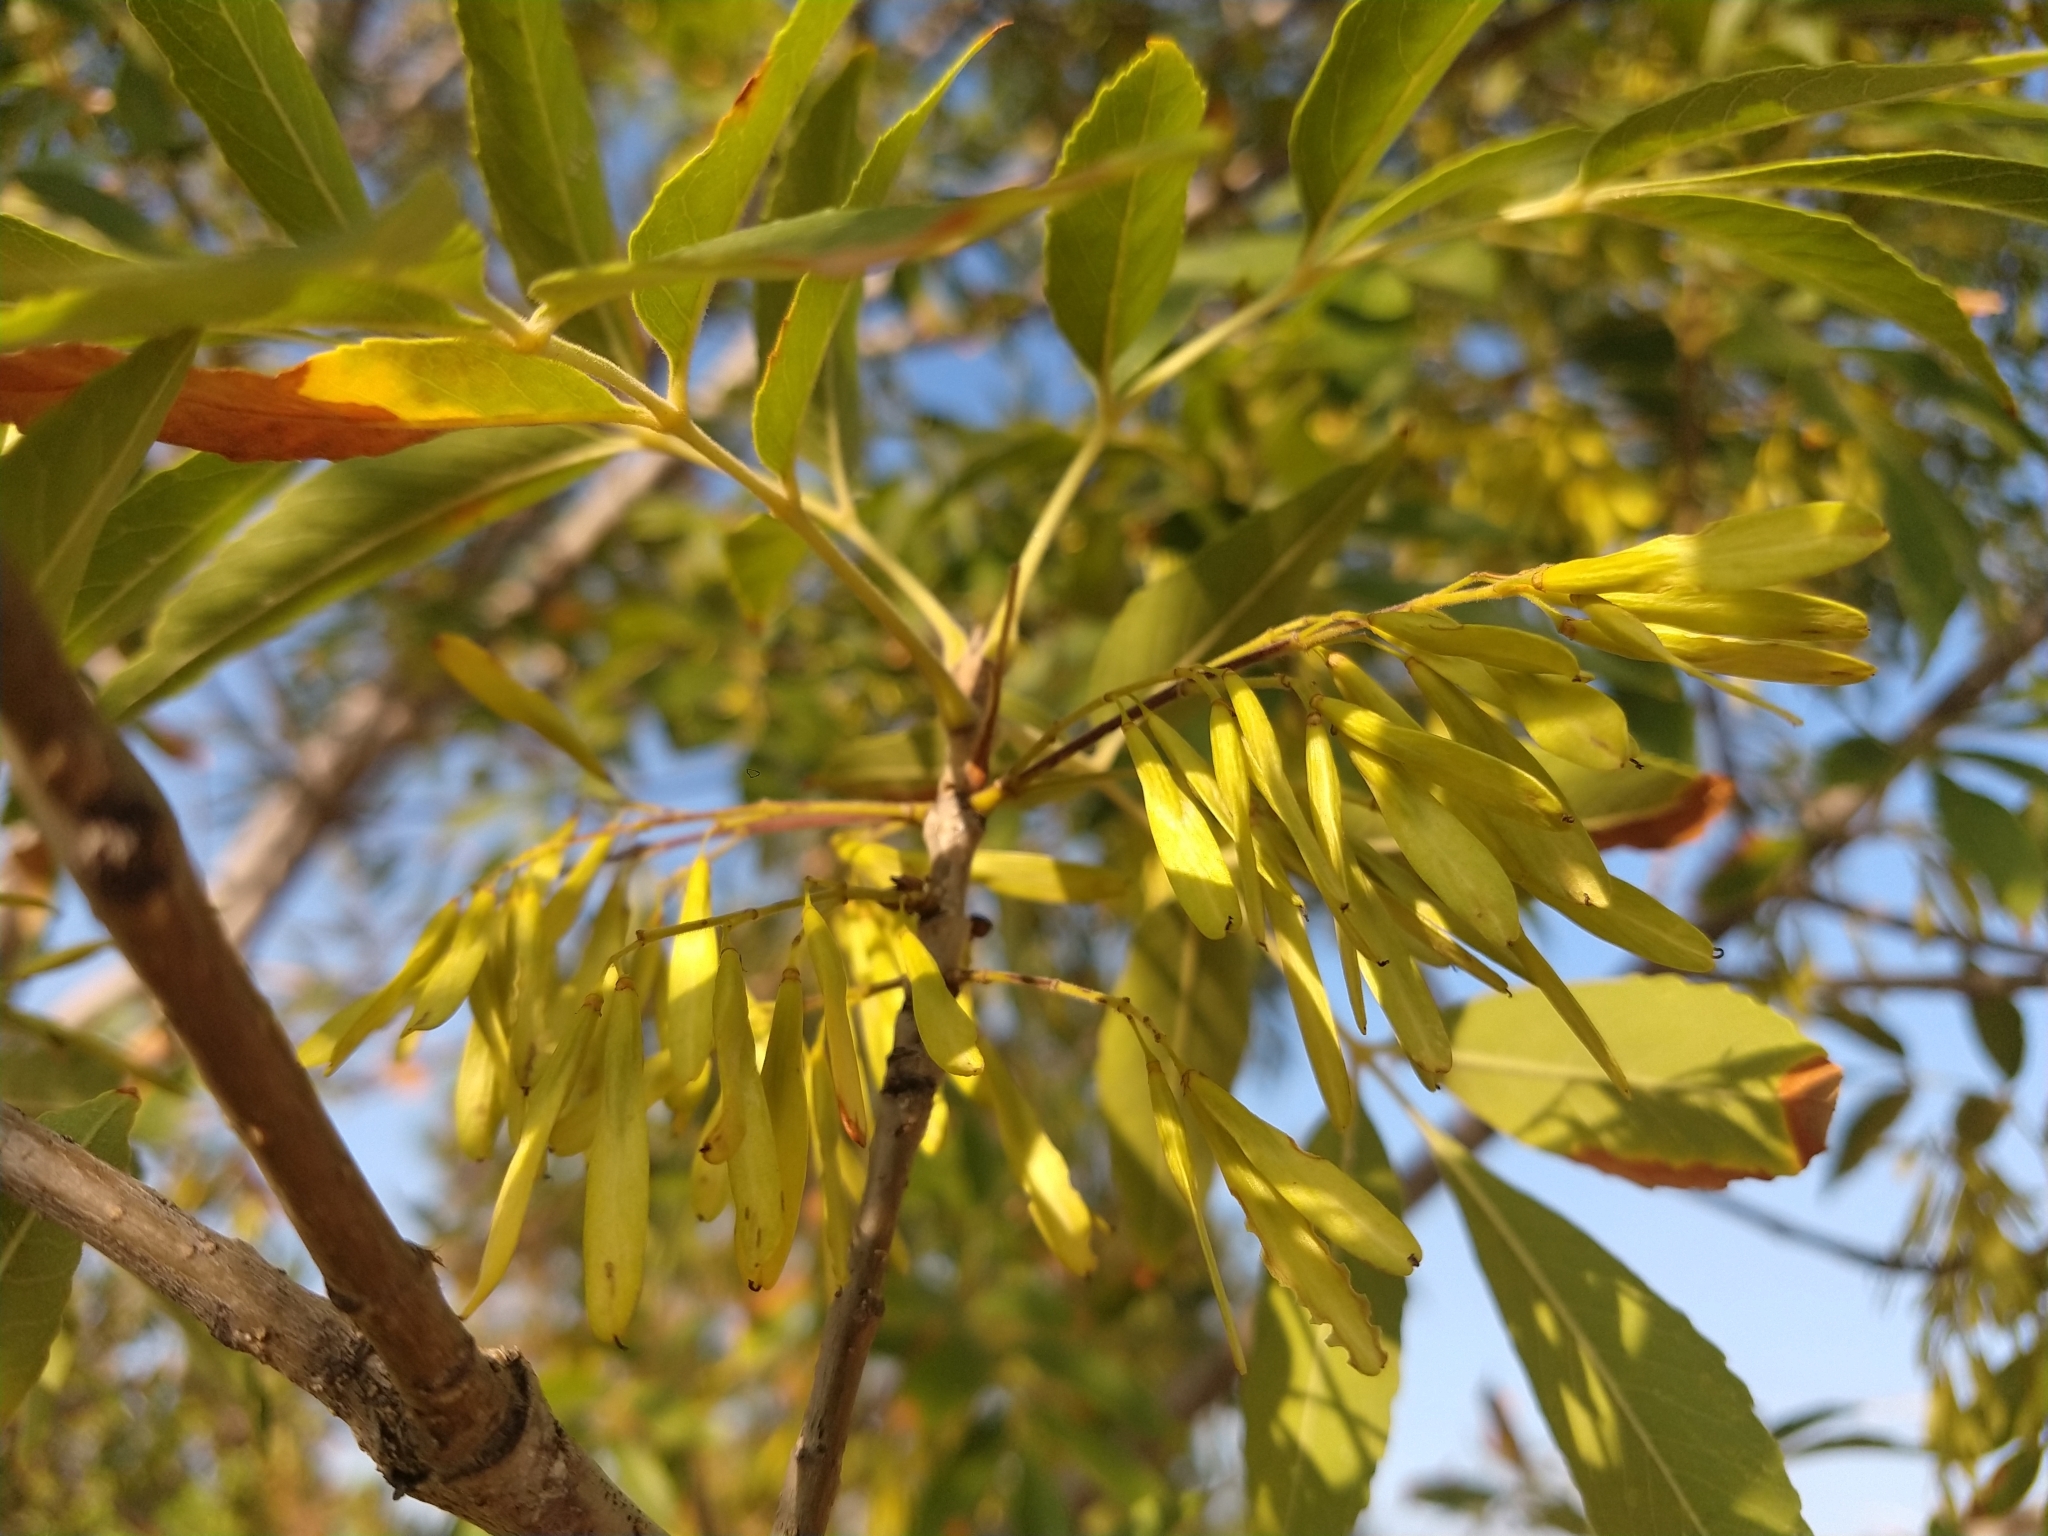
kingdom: Plantae
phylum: Tracheophyta
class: Magnoliopsida
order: Lamiales
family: Oleaceae
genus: Fraxinus
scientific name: Fraxinus velutina
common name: Arizon ash
